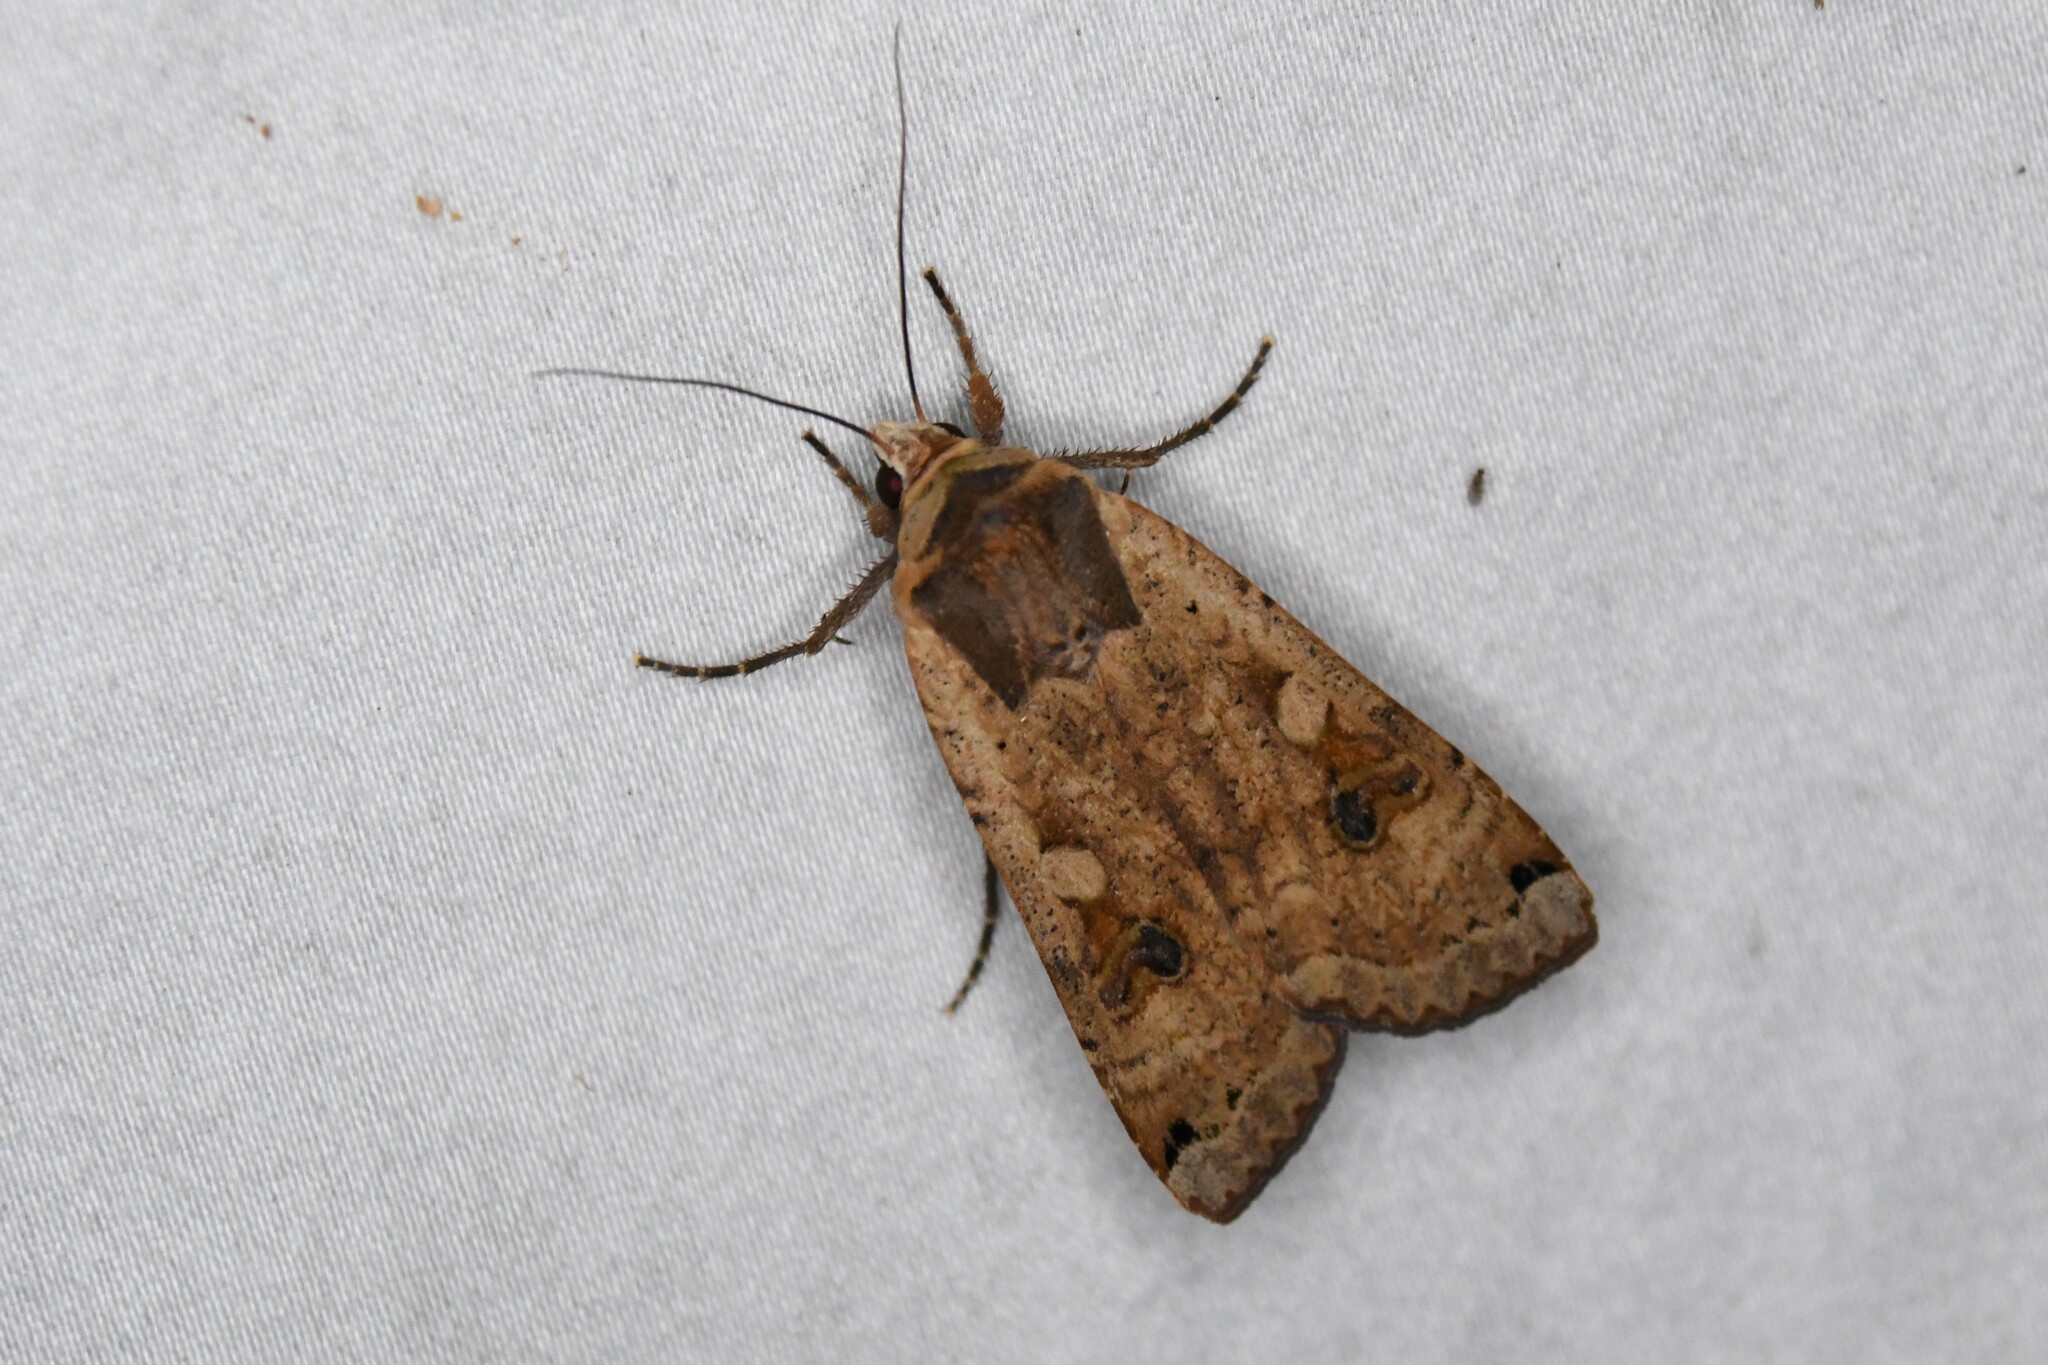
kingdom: Animalia
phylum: Arthropoda
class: Insecta
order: Lepidoptera
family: Noctuidae
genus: Noctua
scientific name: Noctua pronuba
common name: Large yellow underwing
